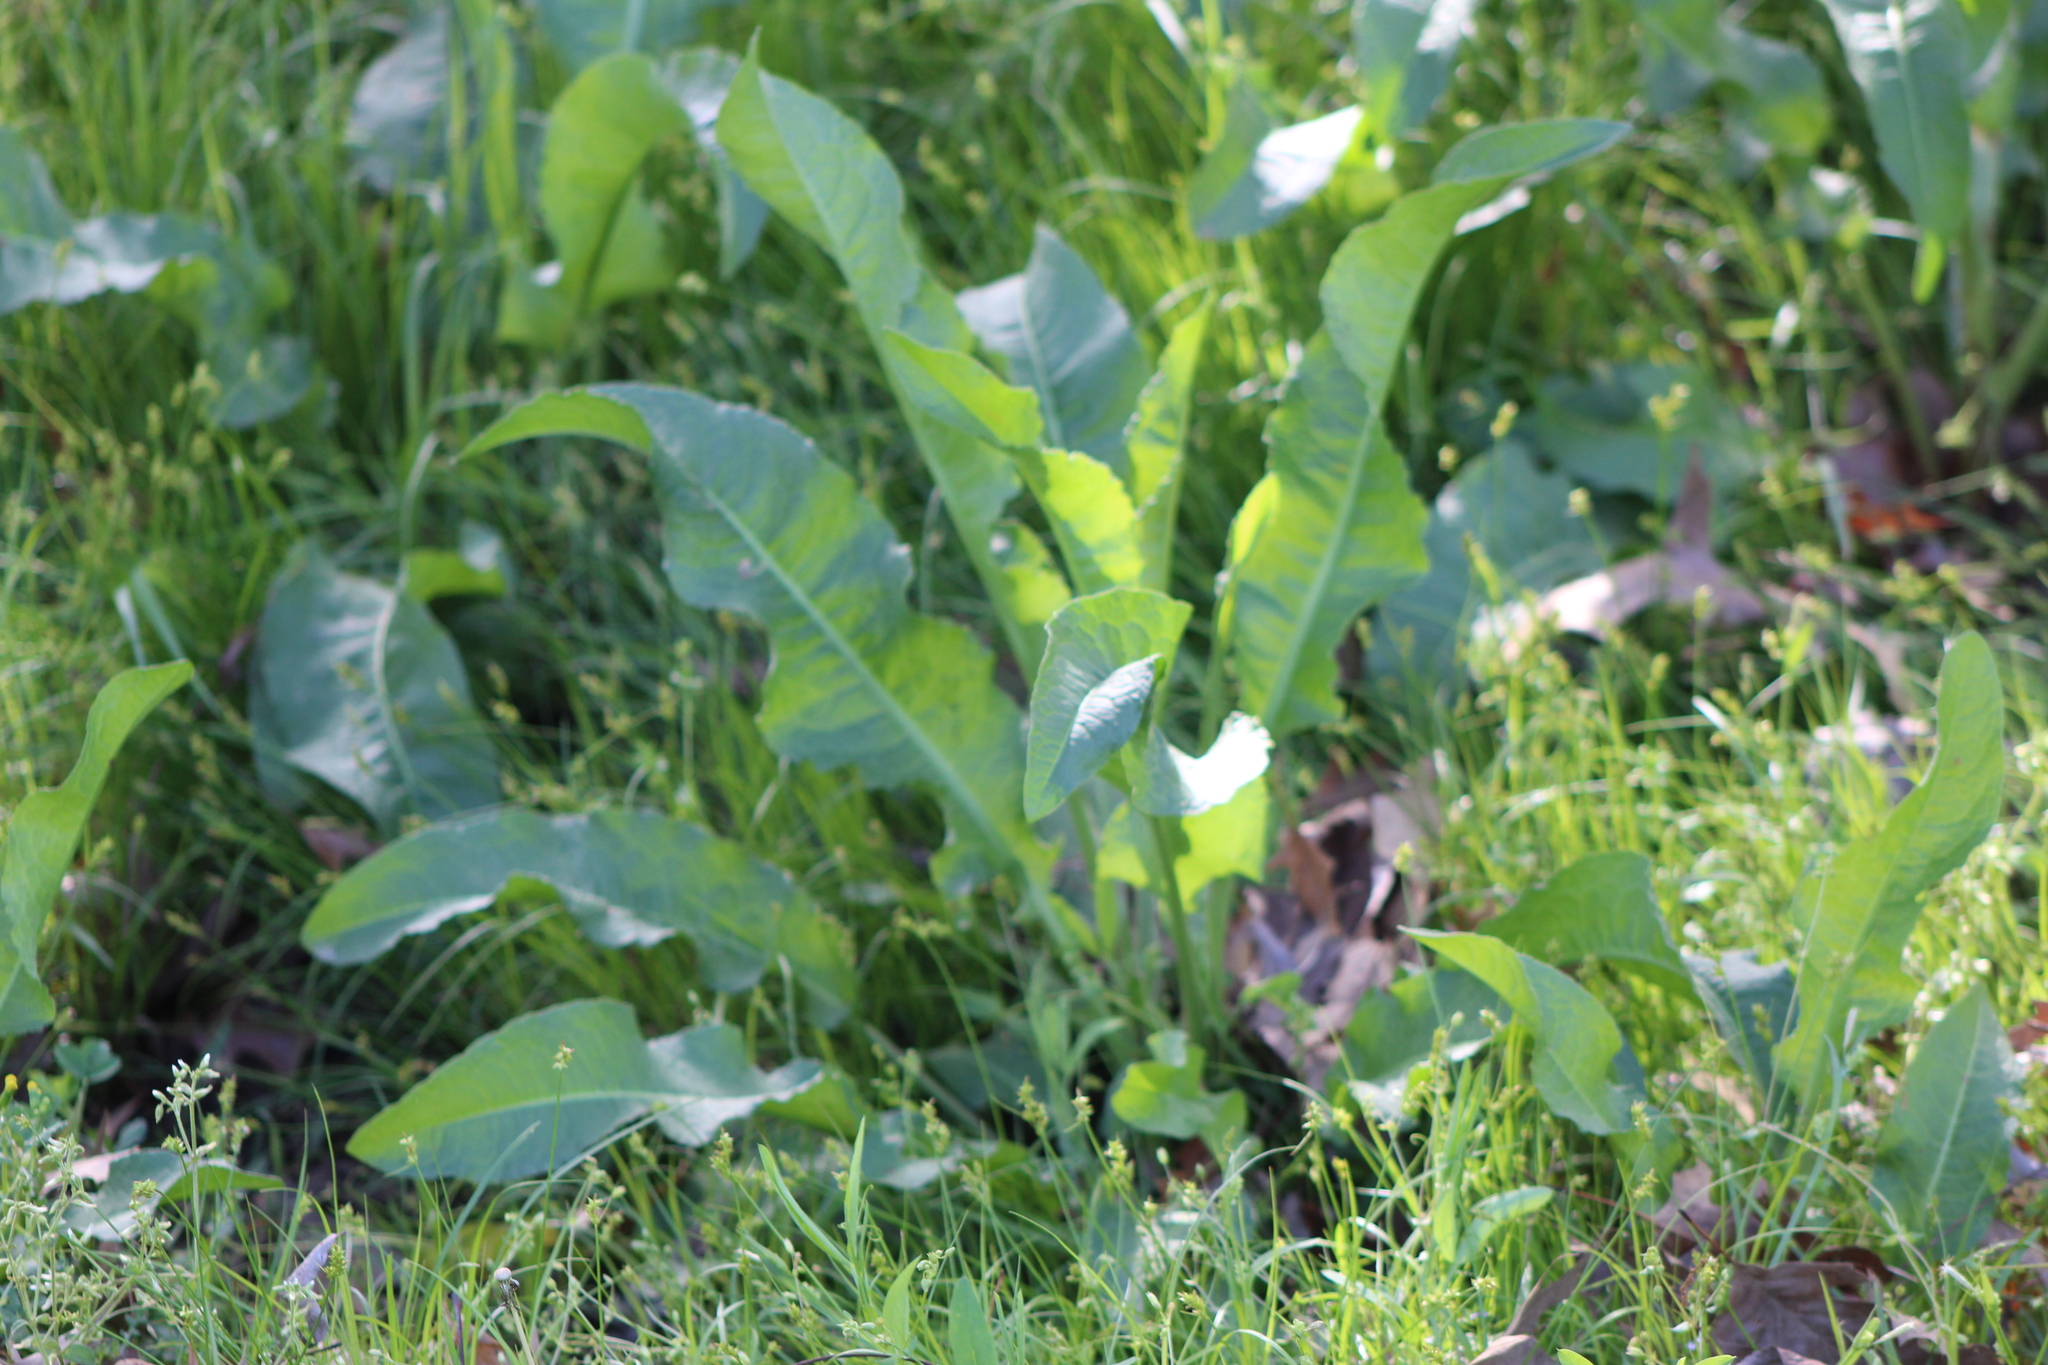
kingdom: Plantae
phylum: Tracheophyta
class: Magnoliopsida
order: Caryophyllales
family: Polygonaceae
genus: Rumex
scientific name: Rumex crispus
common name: Curled dock
